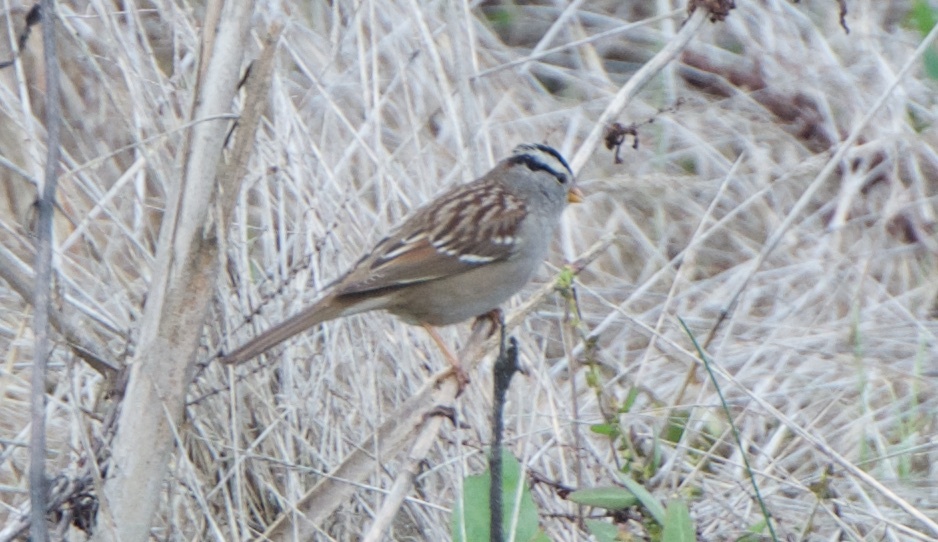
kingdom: Animalia
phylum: Chordata
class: Aves
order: Passeriformes
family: Passerellidae
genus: Zonotrichia
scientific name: Zonotrichia leucophrys
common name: White-crowned sparrow
